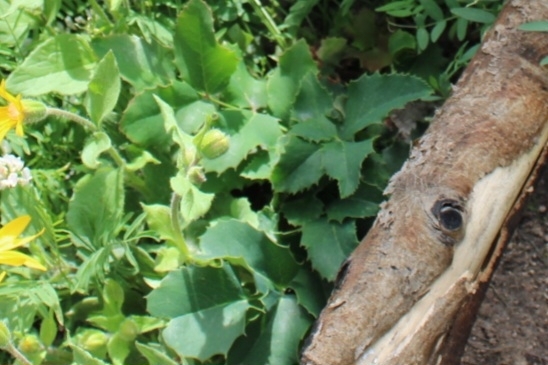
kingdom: Plantae
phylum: Tracheophyta
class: Magnoliopsida
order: Ranunculales
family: Berberidaceae
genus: Mahonia
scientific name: Mahonia repens
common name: Creeping oregon-grape
